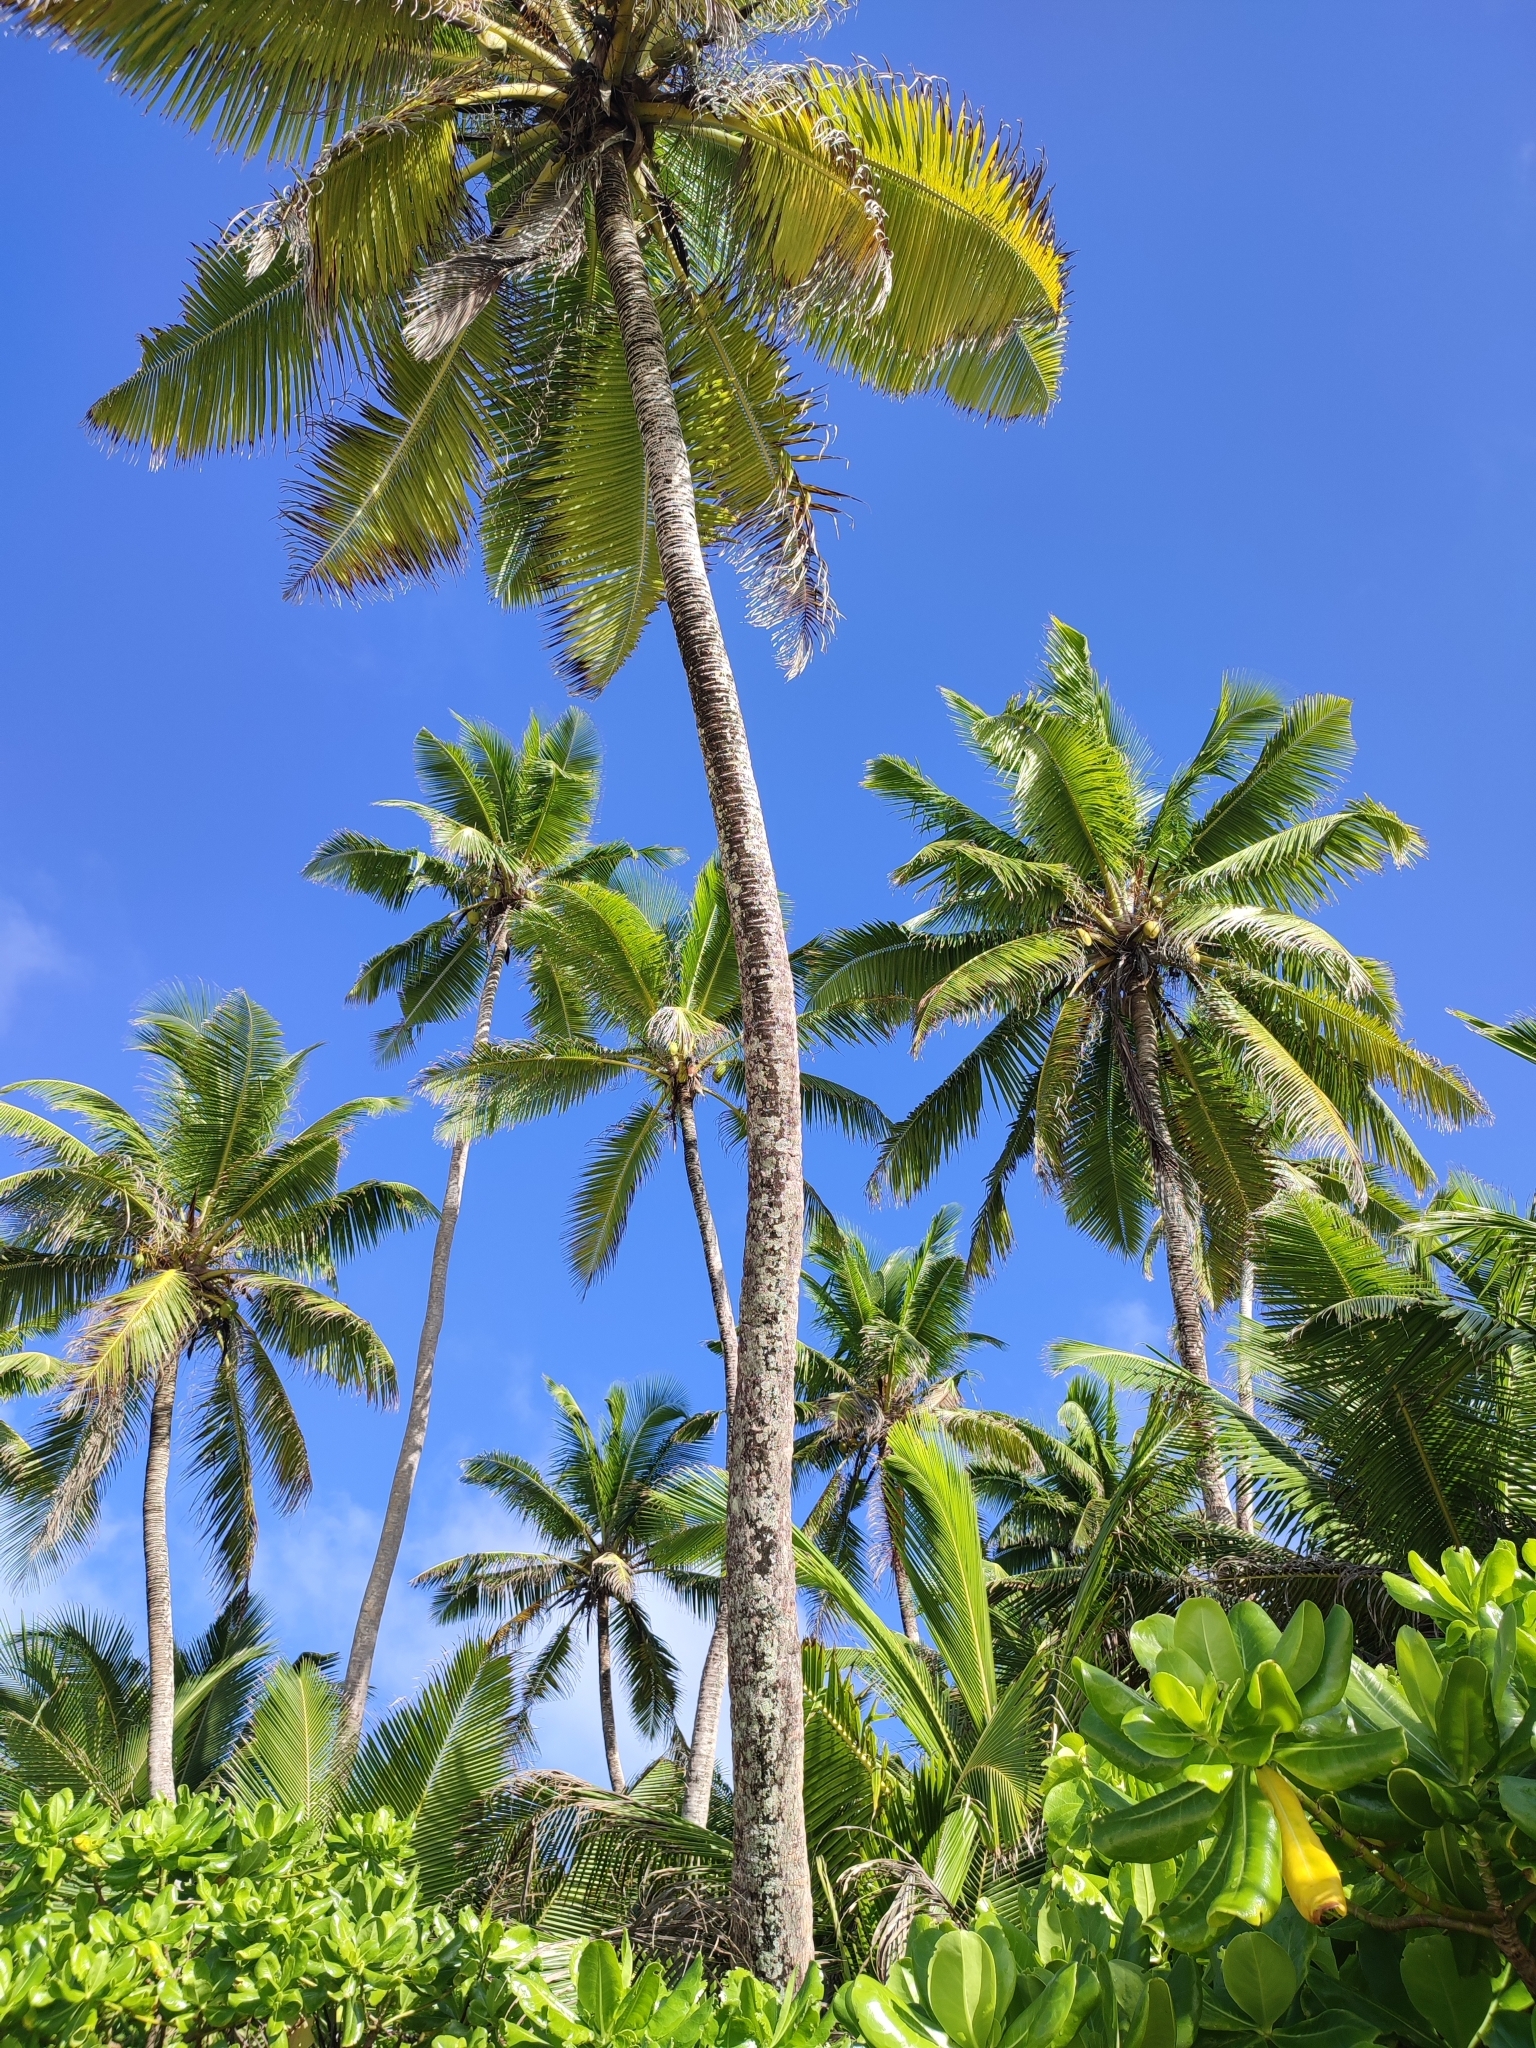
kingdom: Plantae
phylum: Tracheophyta
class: Liliopsida
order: Arecales
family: Arecaceae
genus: Cocos
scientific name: Cocos nucifera
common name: Coconut palm
